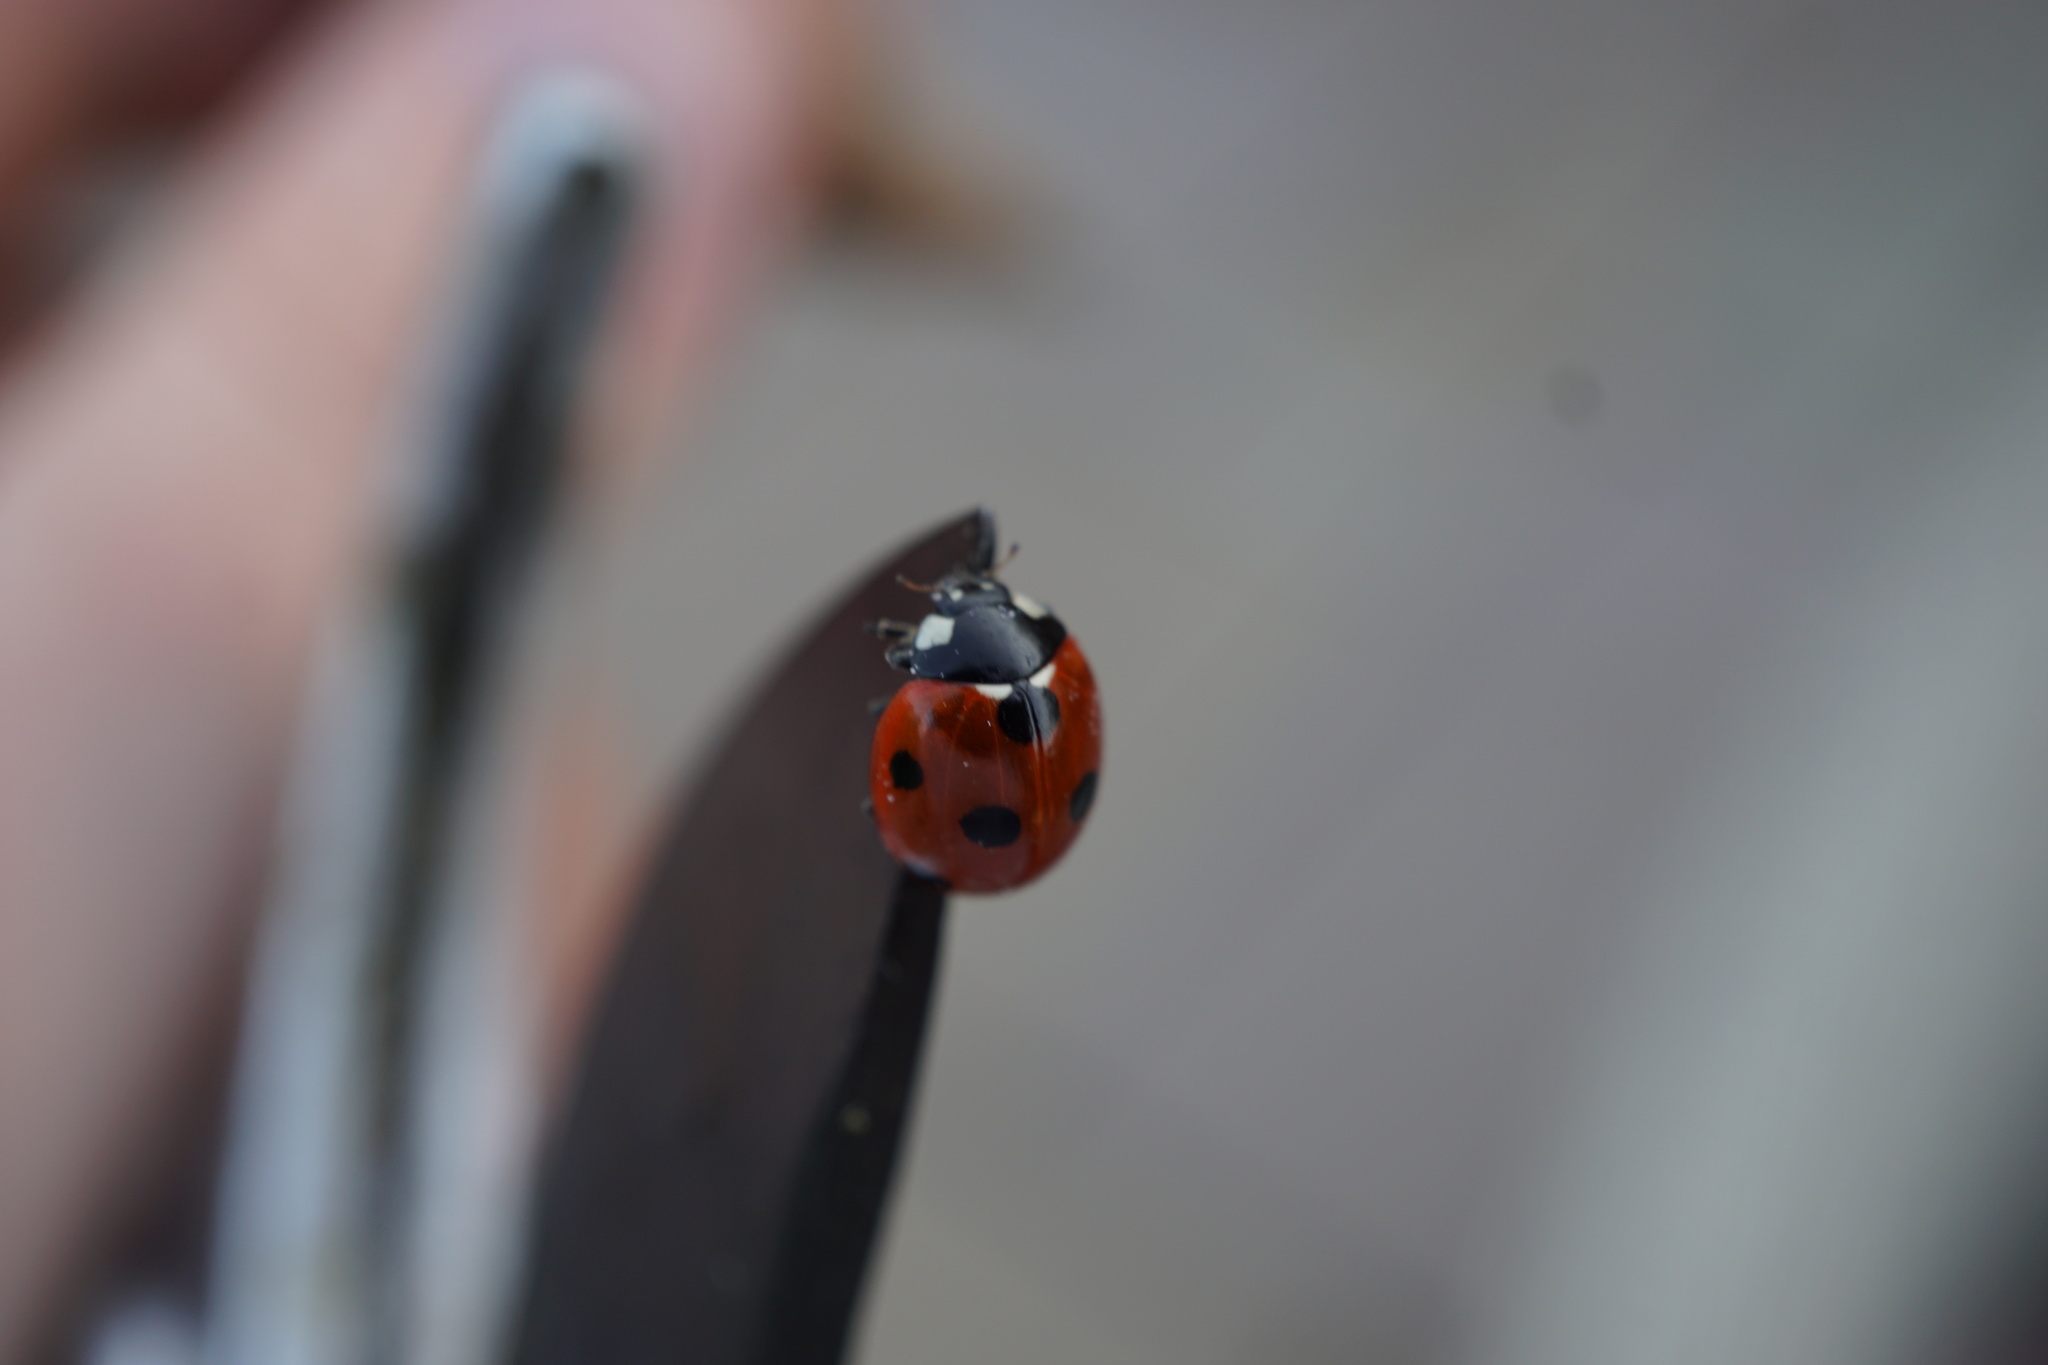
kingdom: Animalia
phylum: Arthropoda
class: Insecta
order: Coleoptera
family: Coccinellidae
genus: Coccinella
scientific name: Coccinella septempunctata
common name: Sevenspotted lady beetle
